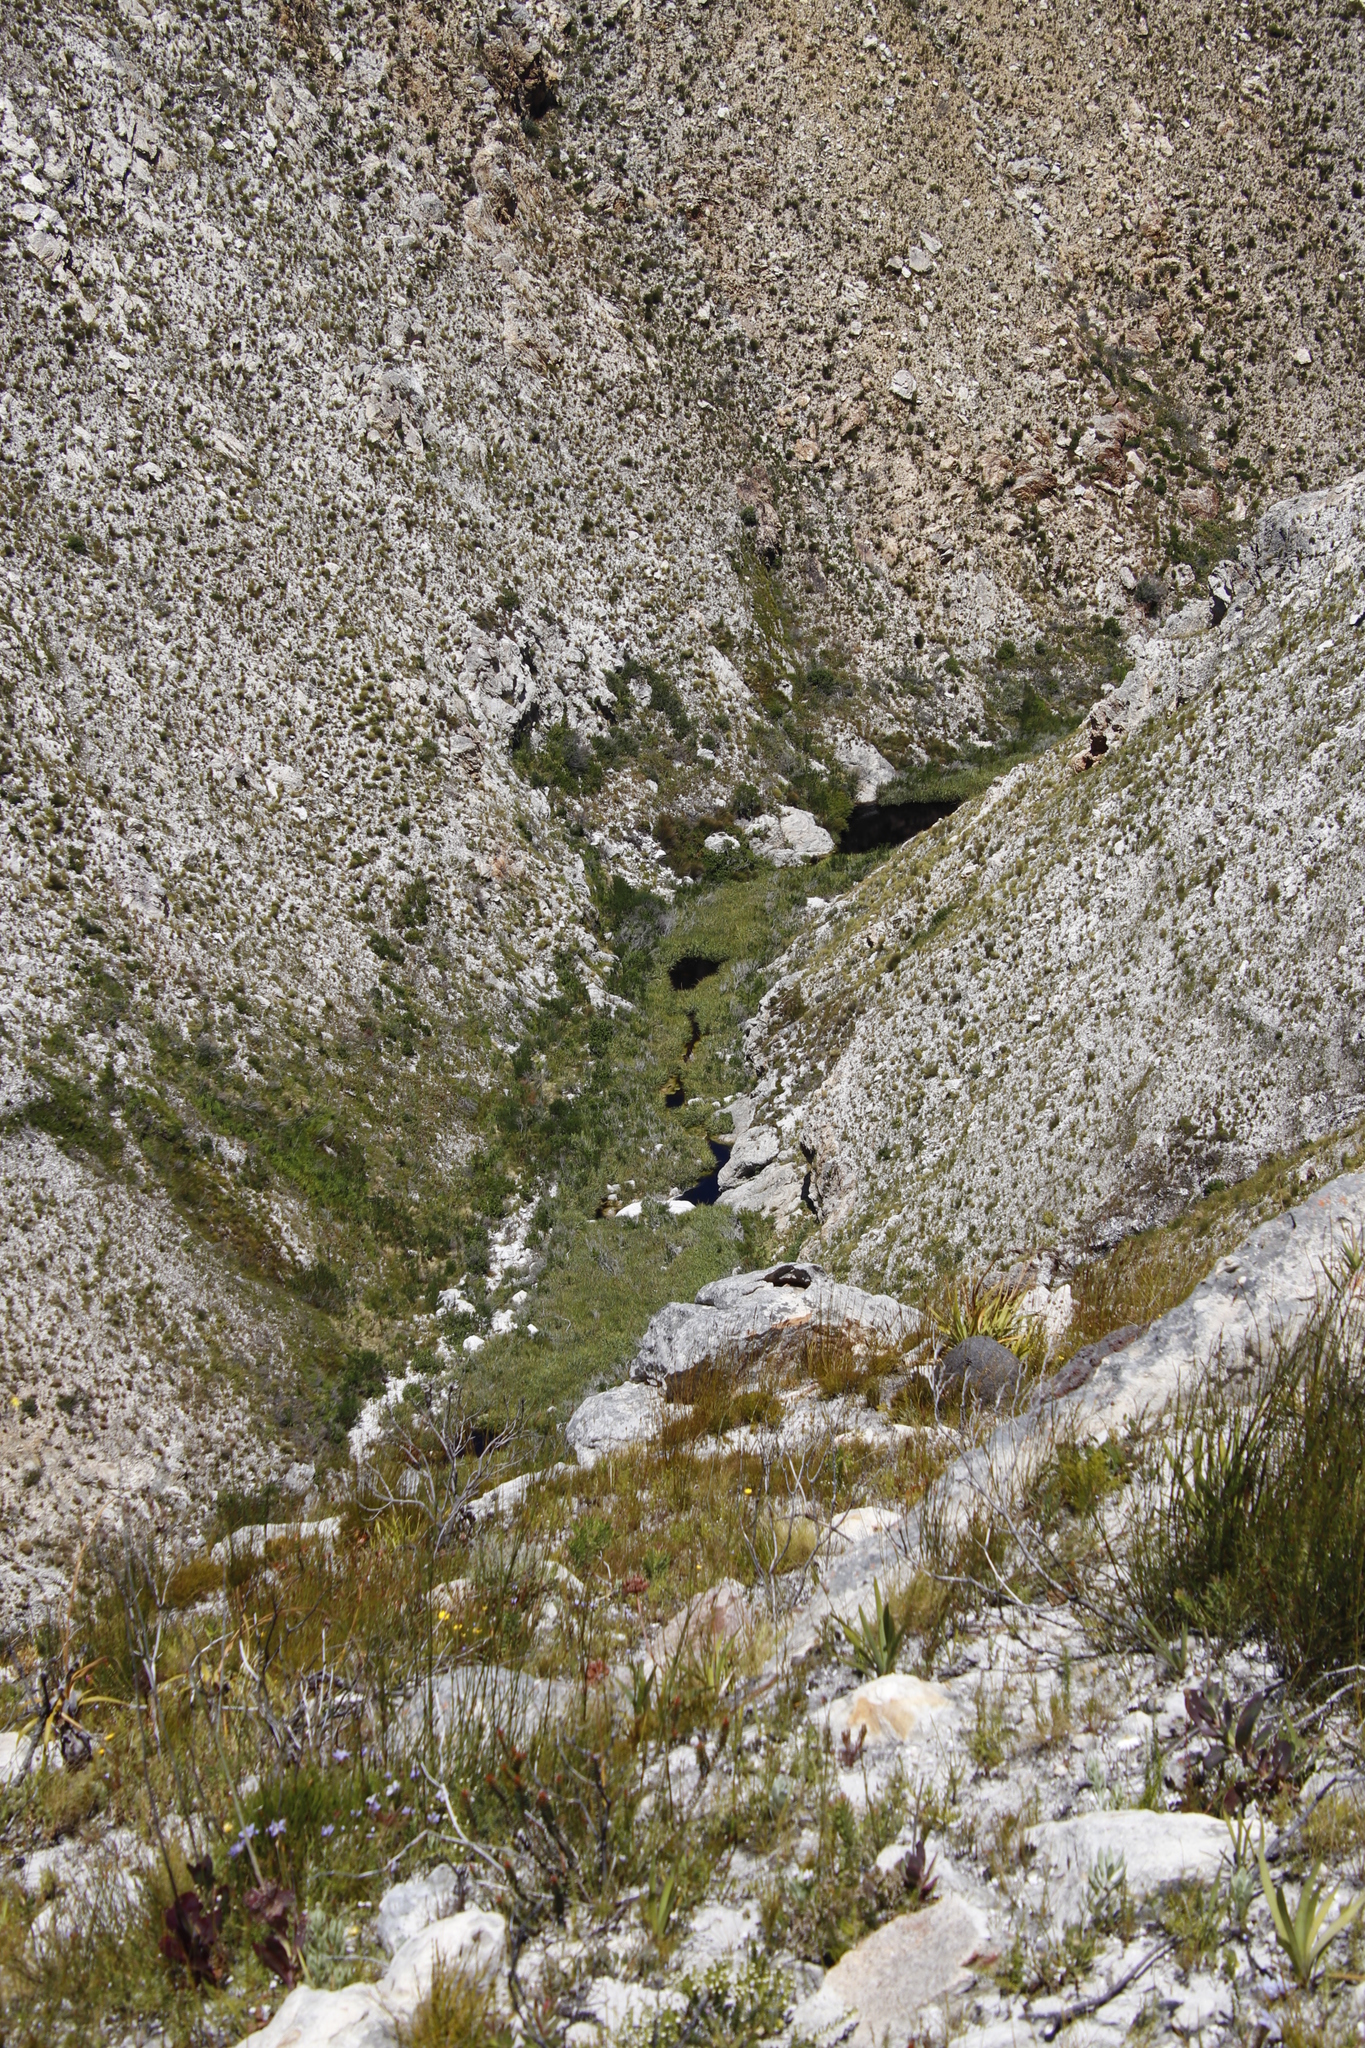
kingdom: Plantae
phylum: Tracheophyta
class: Liliopsida
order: Poales
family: Thurniaceae
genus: Prionium
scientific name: Prionium serratum
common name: Palmiet
